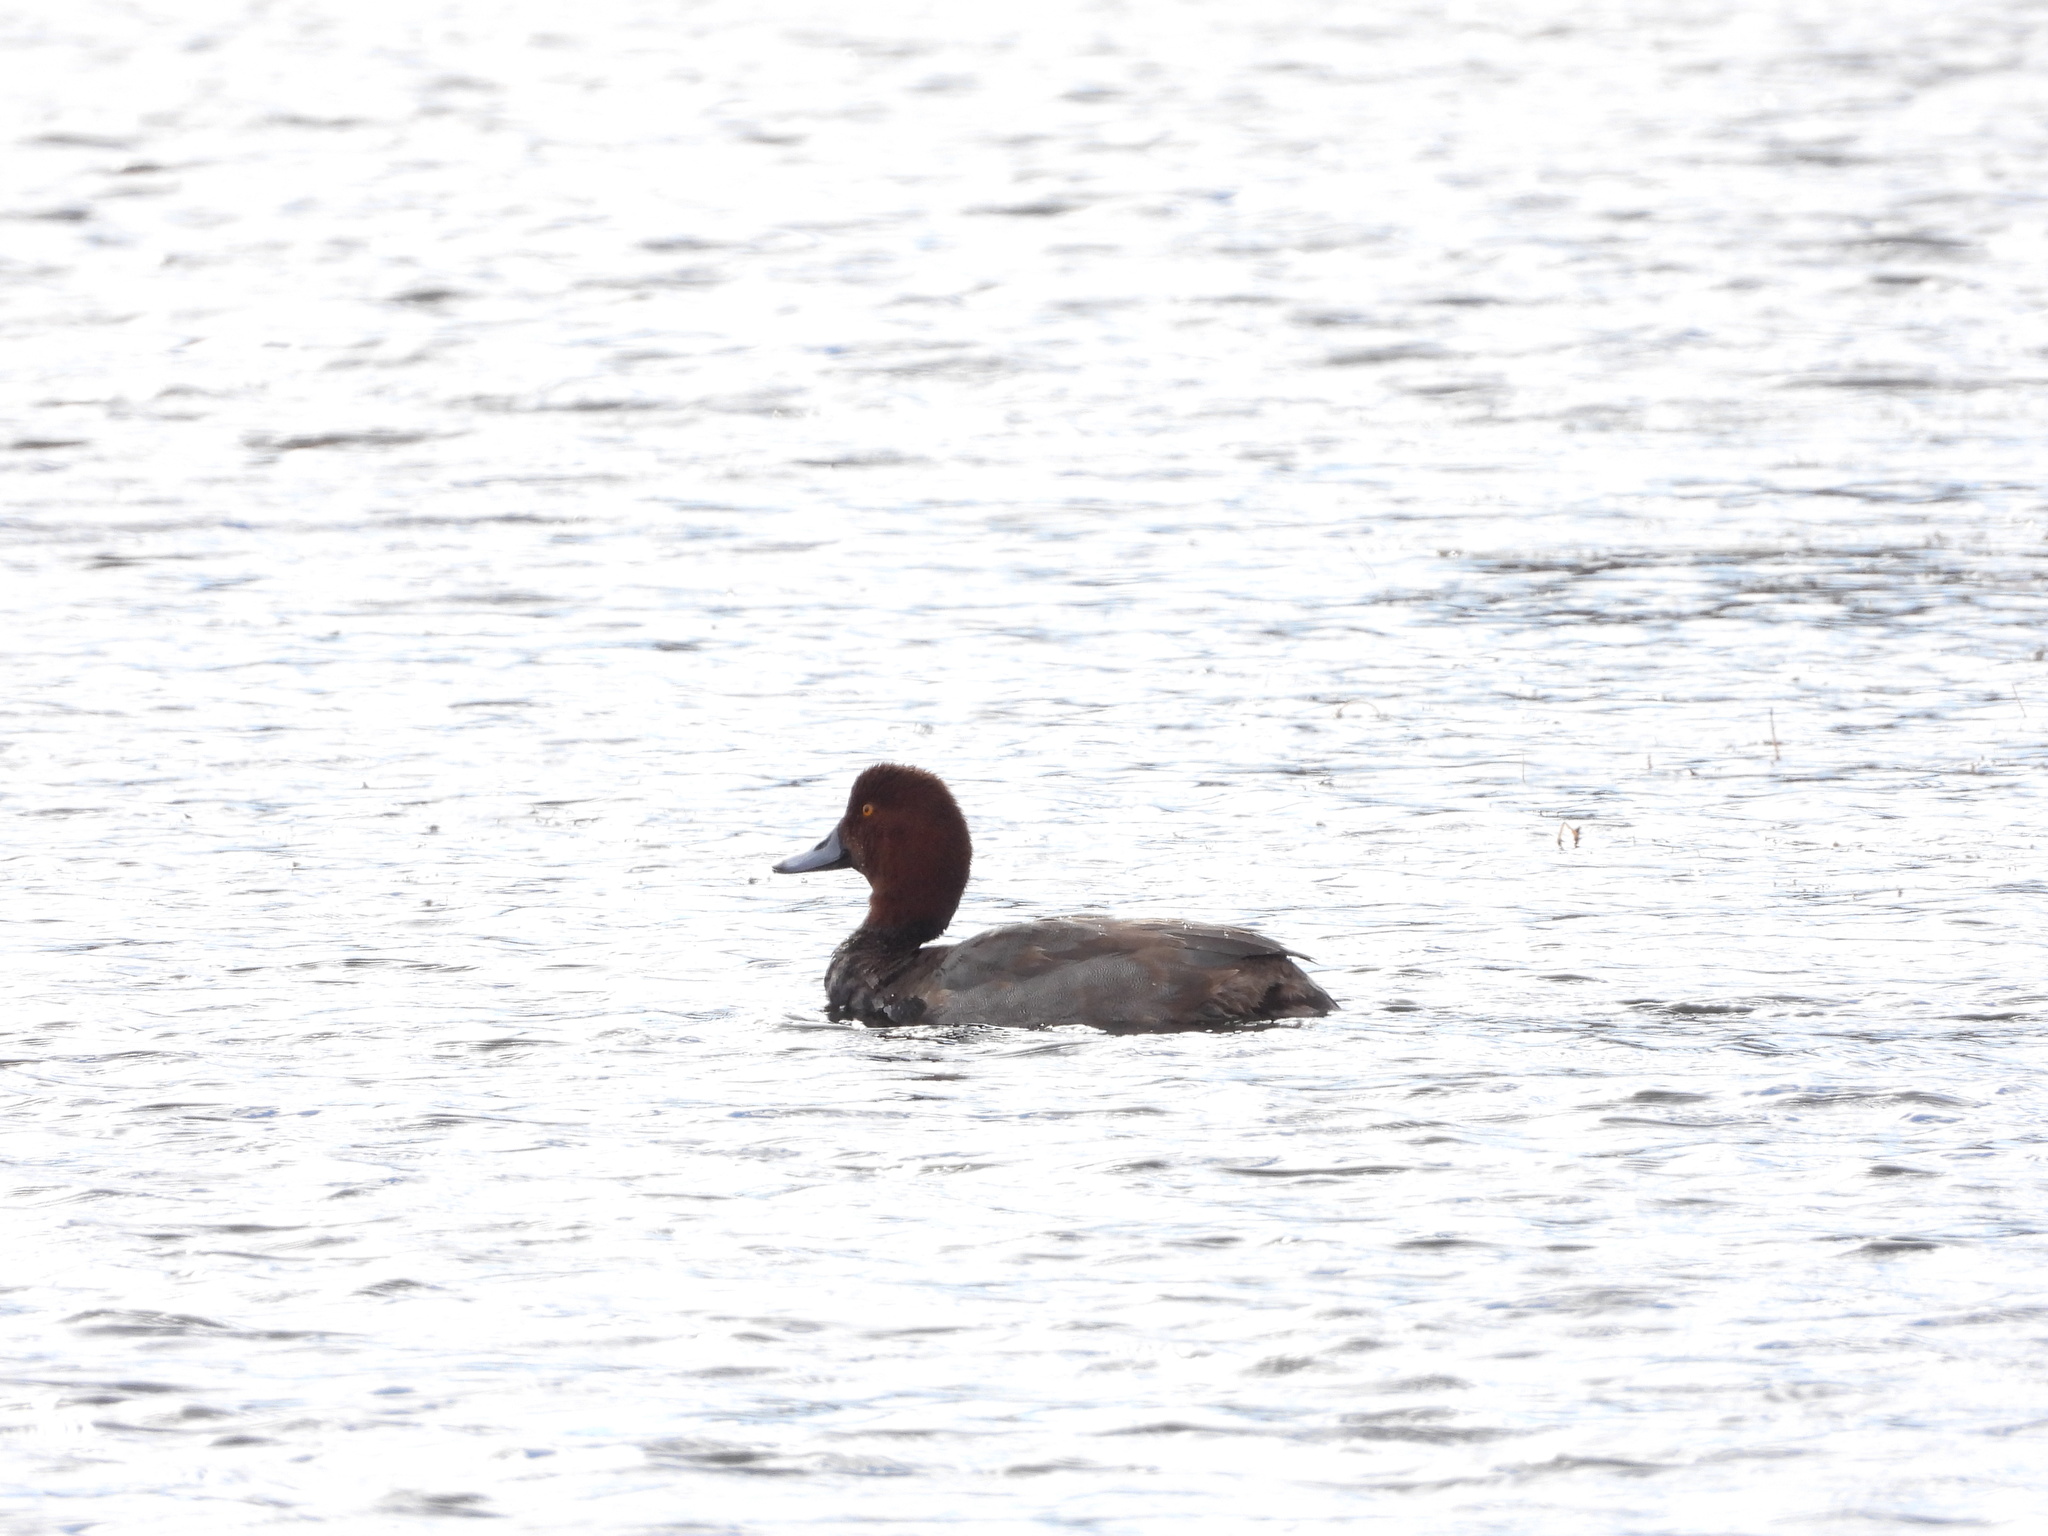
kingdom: Animalia
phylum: Chordata
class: Aves
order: Anseriformes
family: Anatidae
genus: Aythya
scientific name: Aythya americana
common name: Redhead
